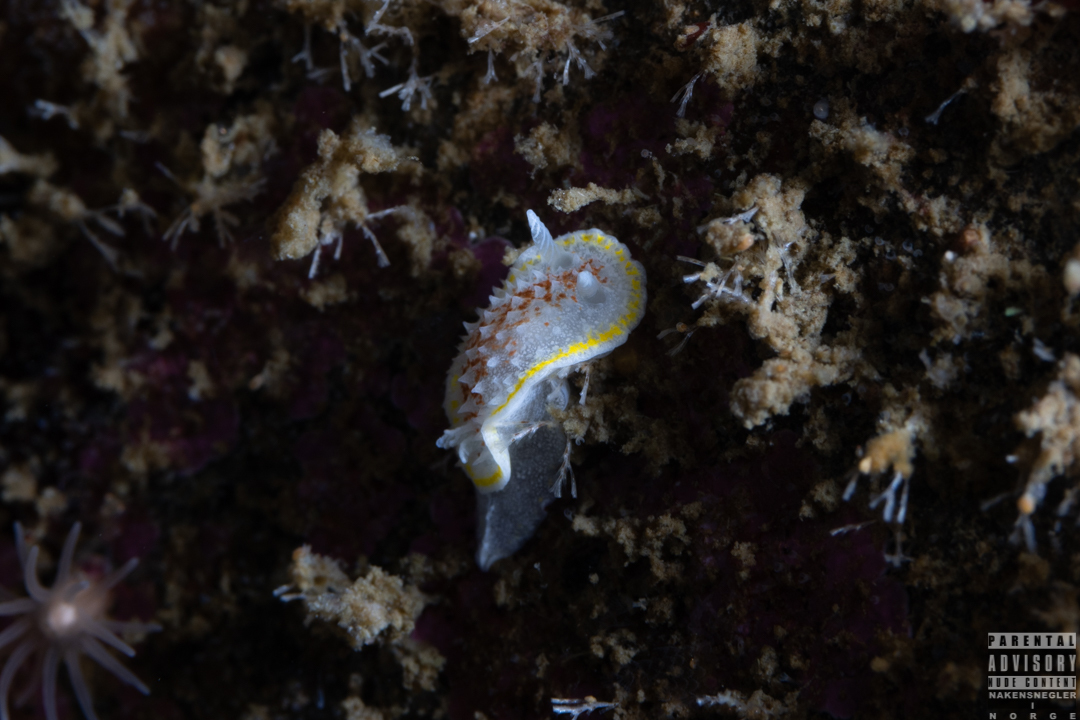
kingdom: Animalia
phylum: Mollusca
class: Gastropoda
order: Nudibranchia
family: Calycidorididae
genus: Diaphorodoris
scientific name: Diaphorodoris luteocincta
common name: Fried egg nudibranch
